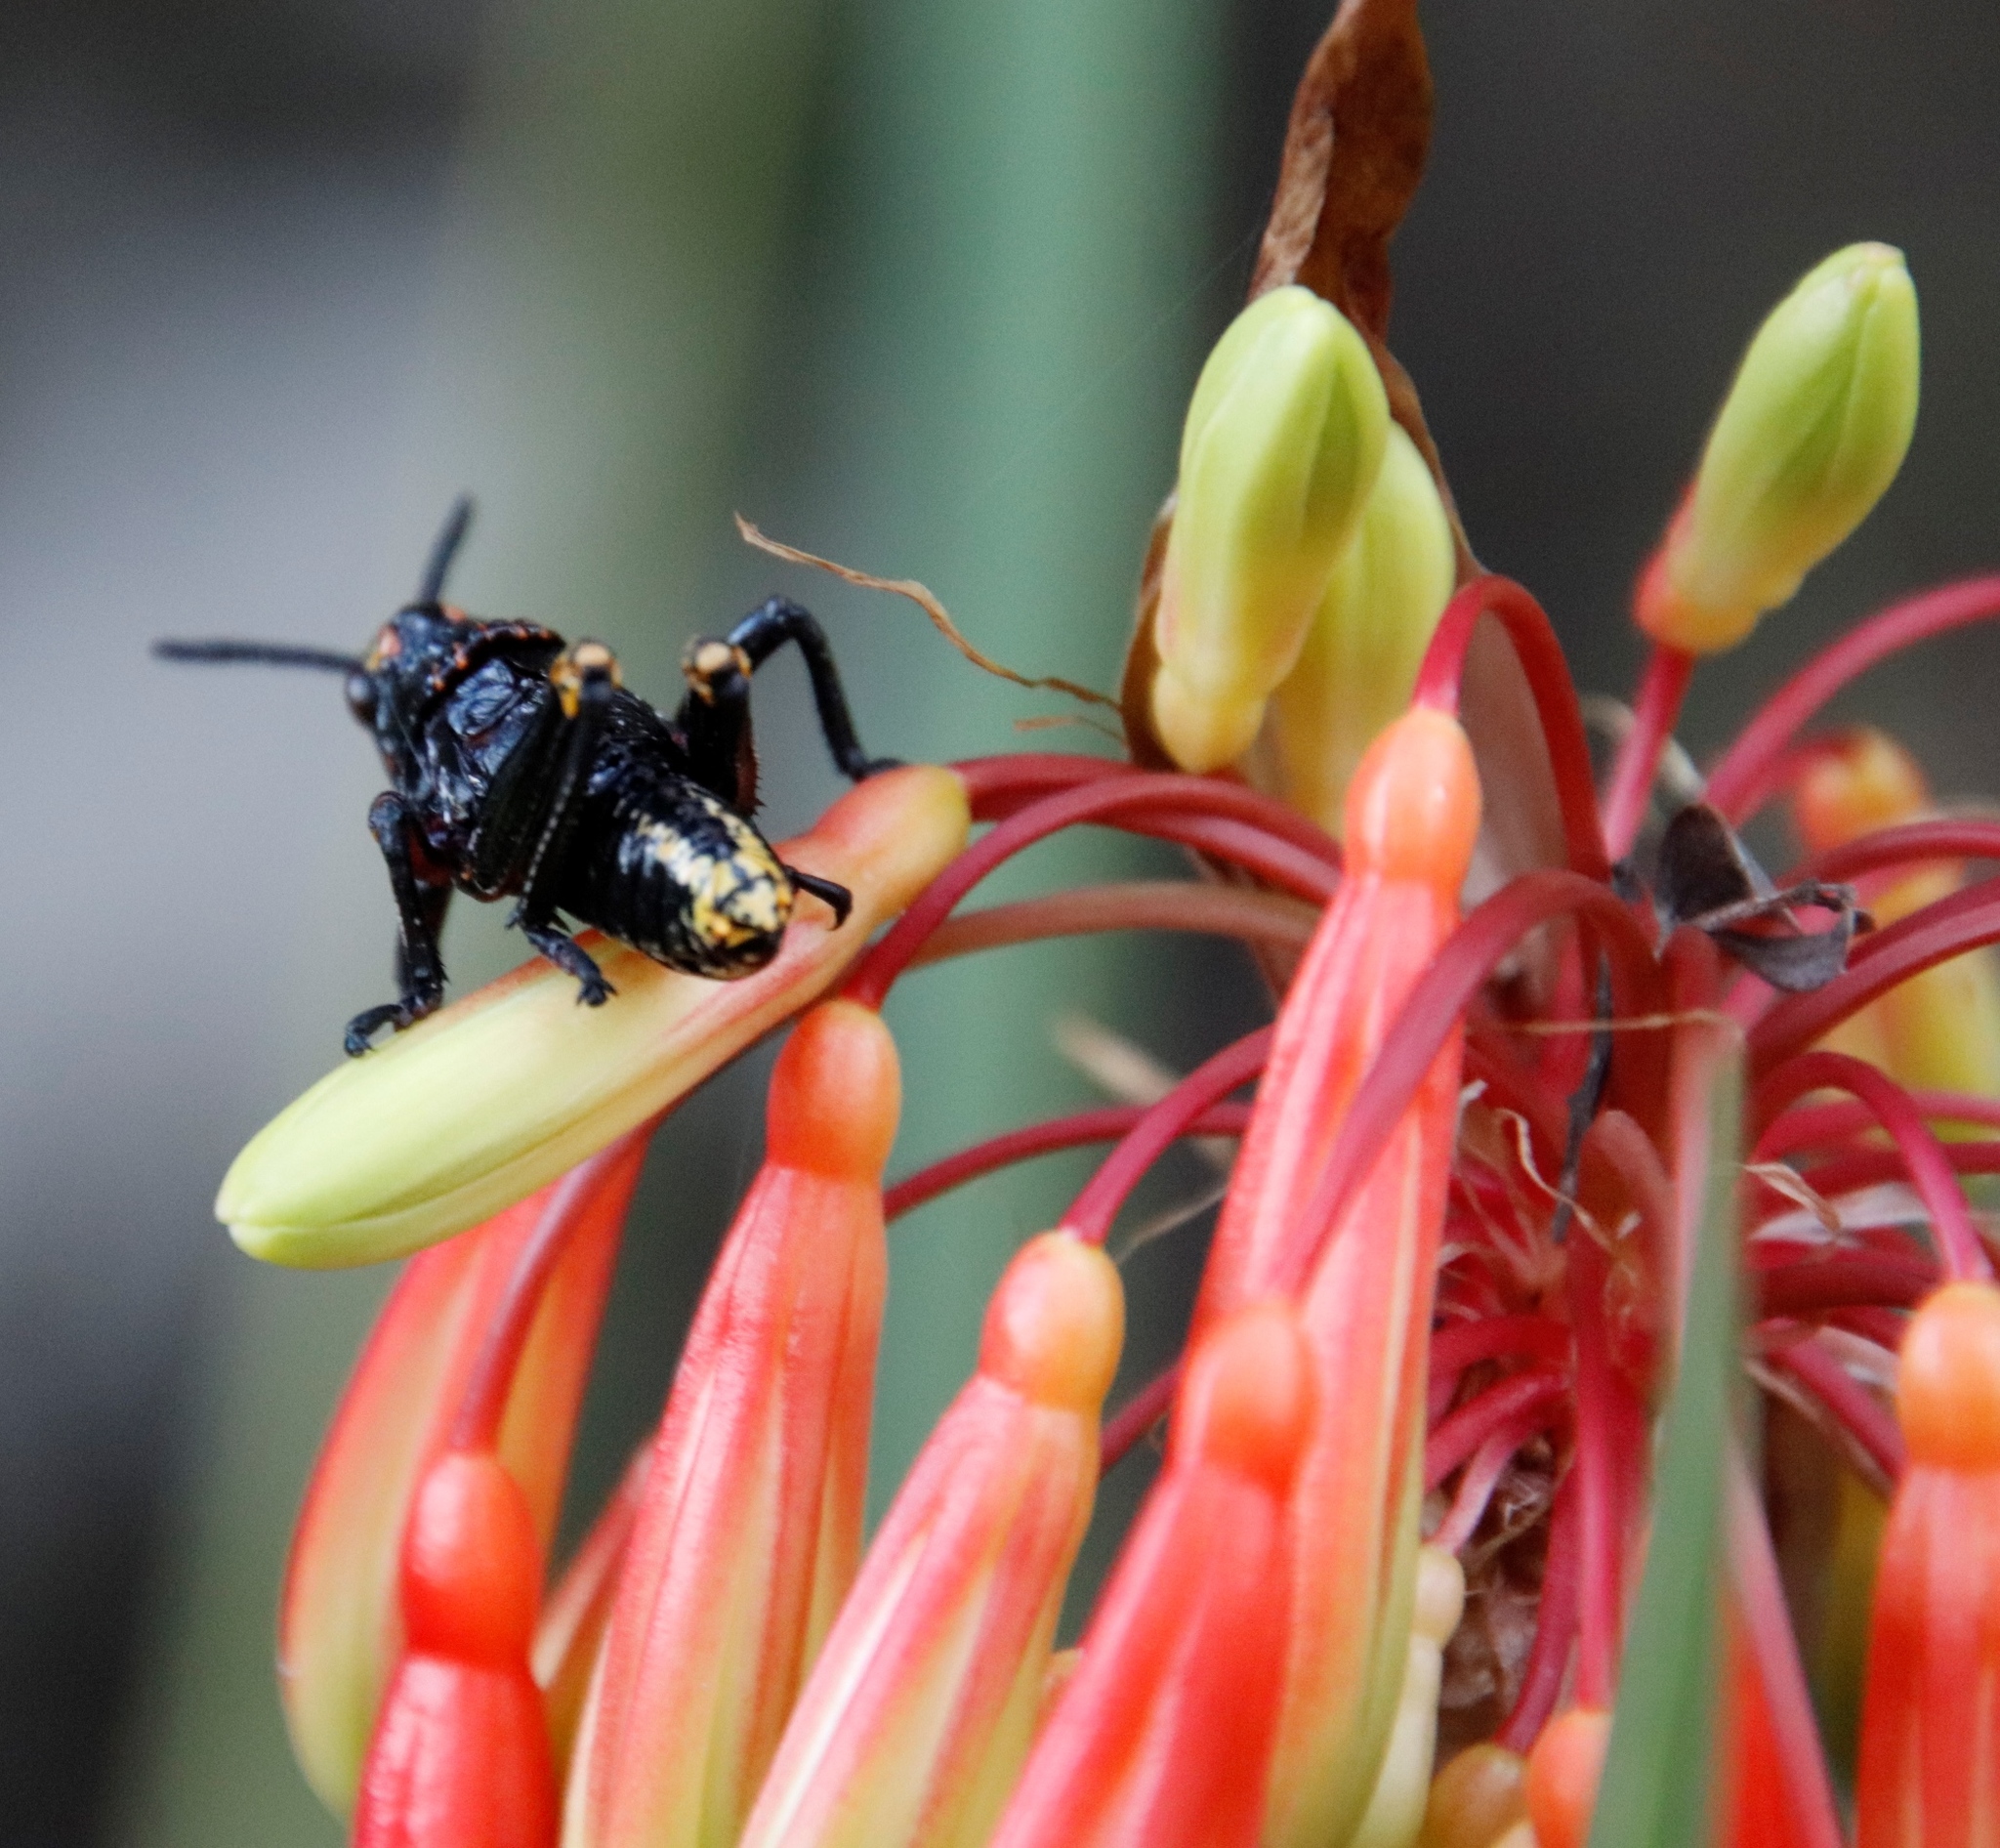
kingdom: Plantae
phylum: Tracheophyta
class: Liliopsida
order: Asparagales
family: Amaryllidaceae
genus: Clivia
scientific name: Clivia mirabilis
